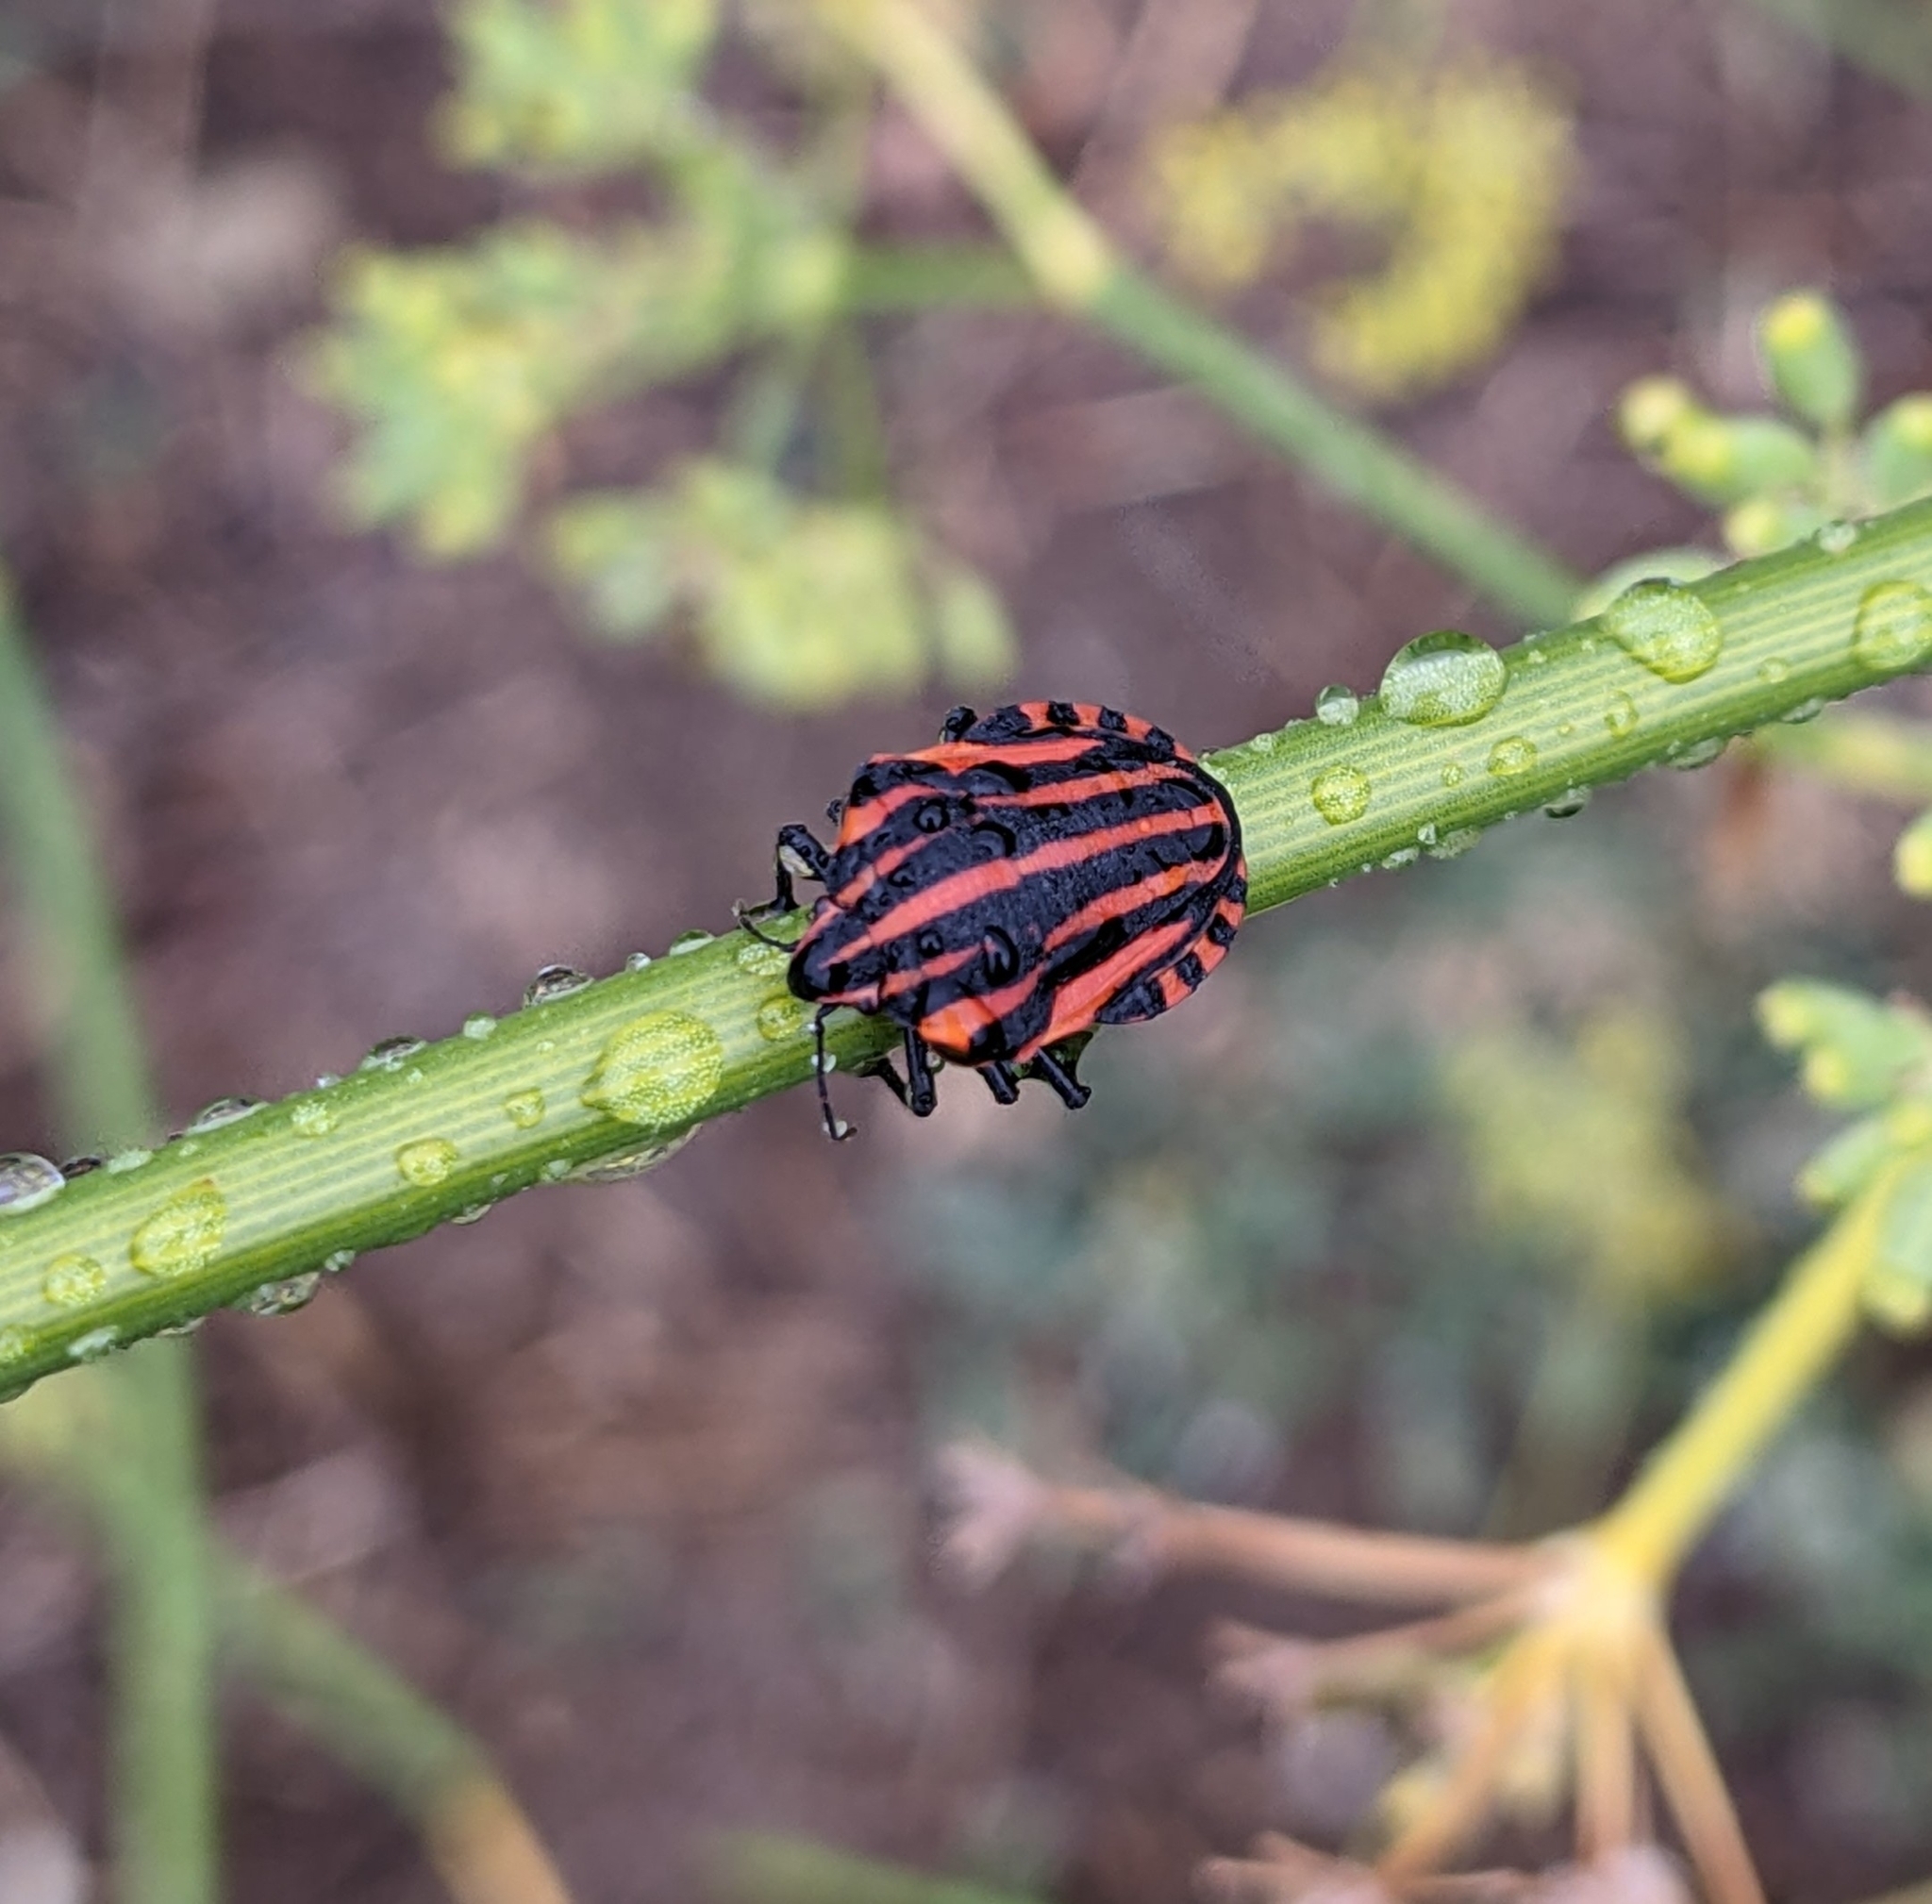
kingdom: Animalia
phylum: Arthropoda
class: Insecta
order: Hemiptera
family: Pentatomidae
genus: Graphosoma
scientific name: Graphosoma italicum
